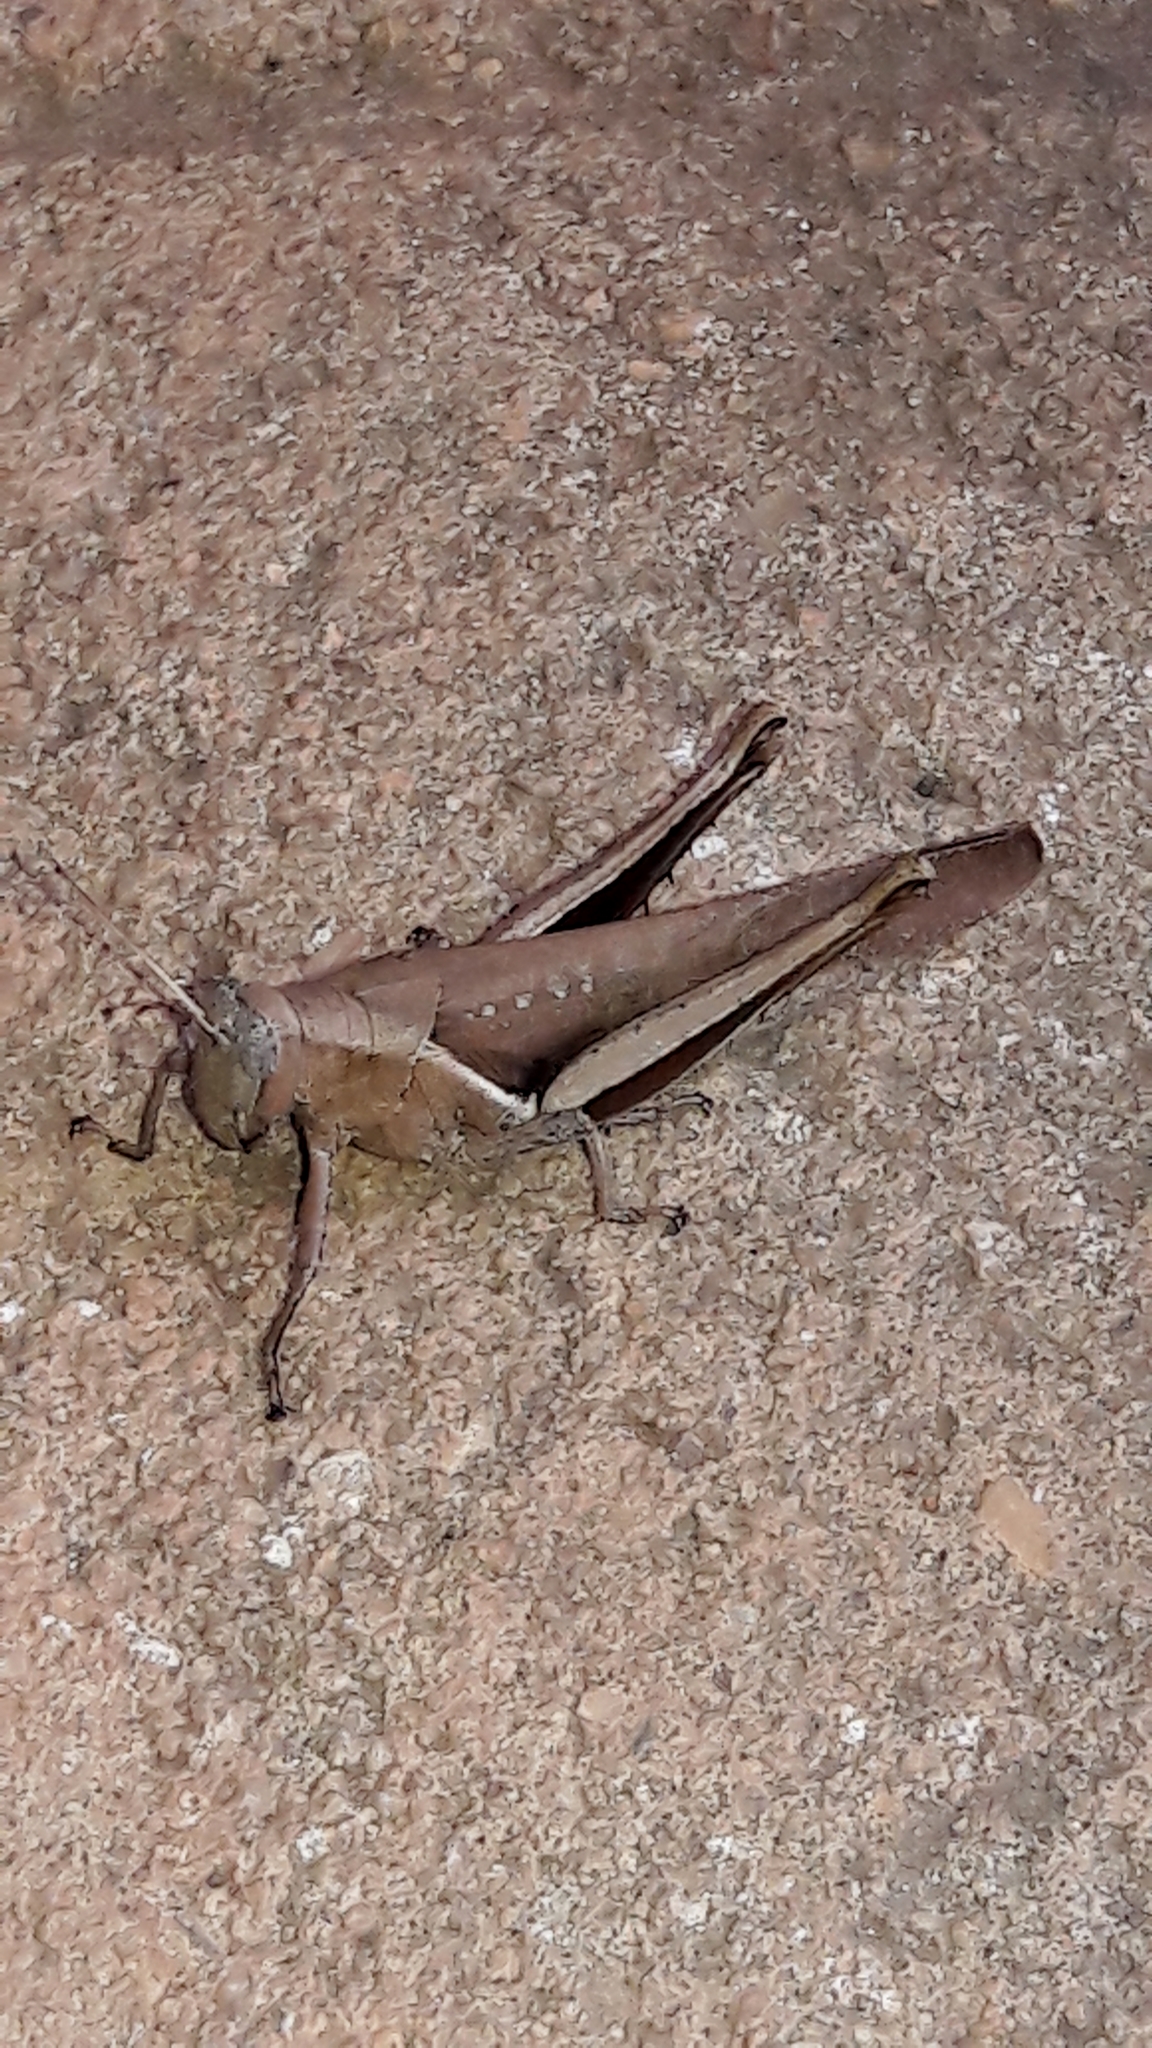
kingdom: Animalia
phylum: Arthropoda
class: Insecta
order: Orthoptera
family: Acrididae
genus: Abracris
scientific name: Abracris flavolineata
